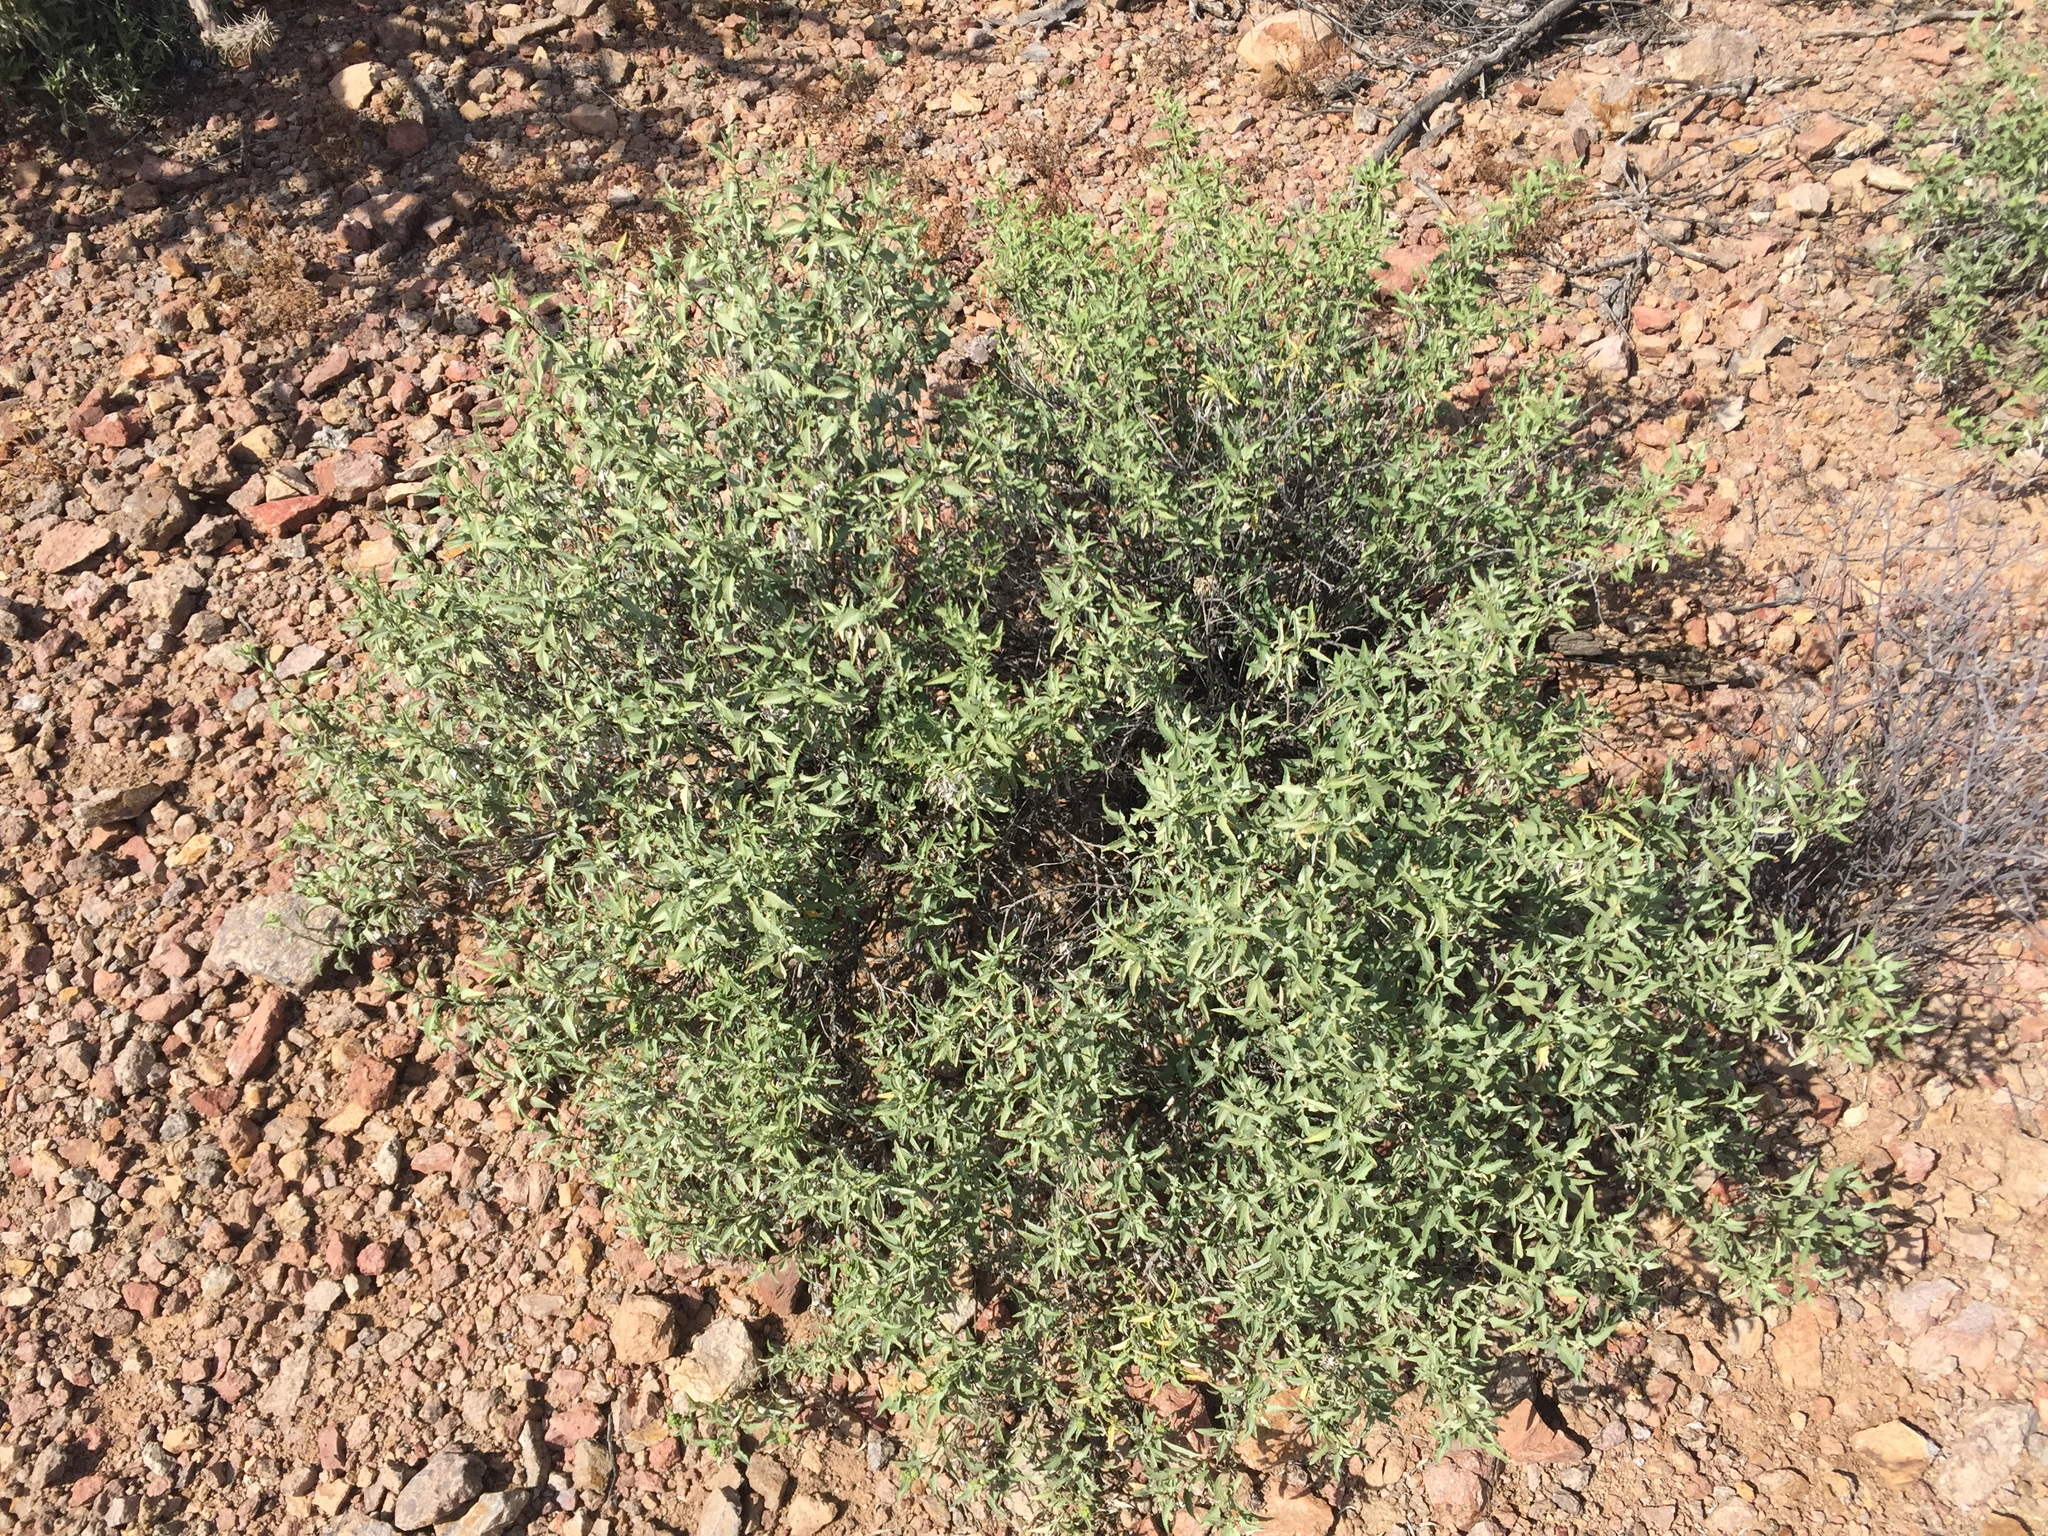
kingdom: Plantae
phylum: Tracheophyta
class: Magnoliopsida
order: Asterales
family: Asteraceae
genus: Ambrosia
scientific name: Ambrosia deltoidea
